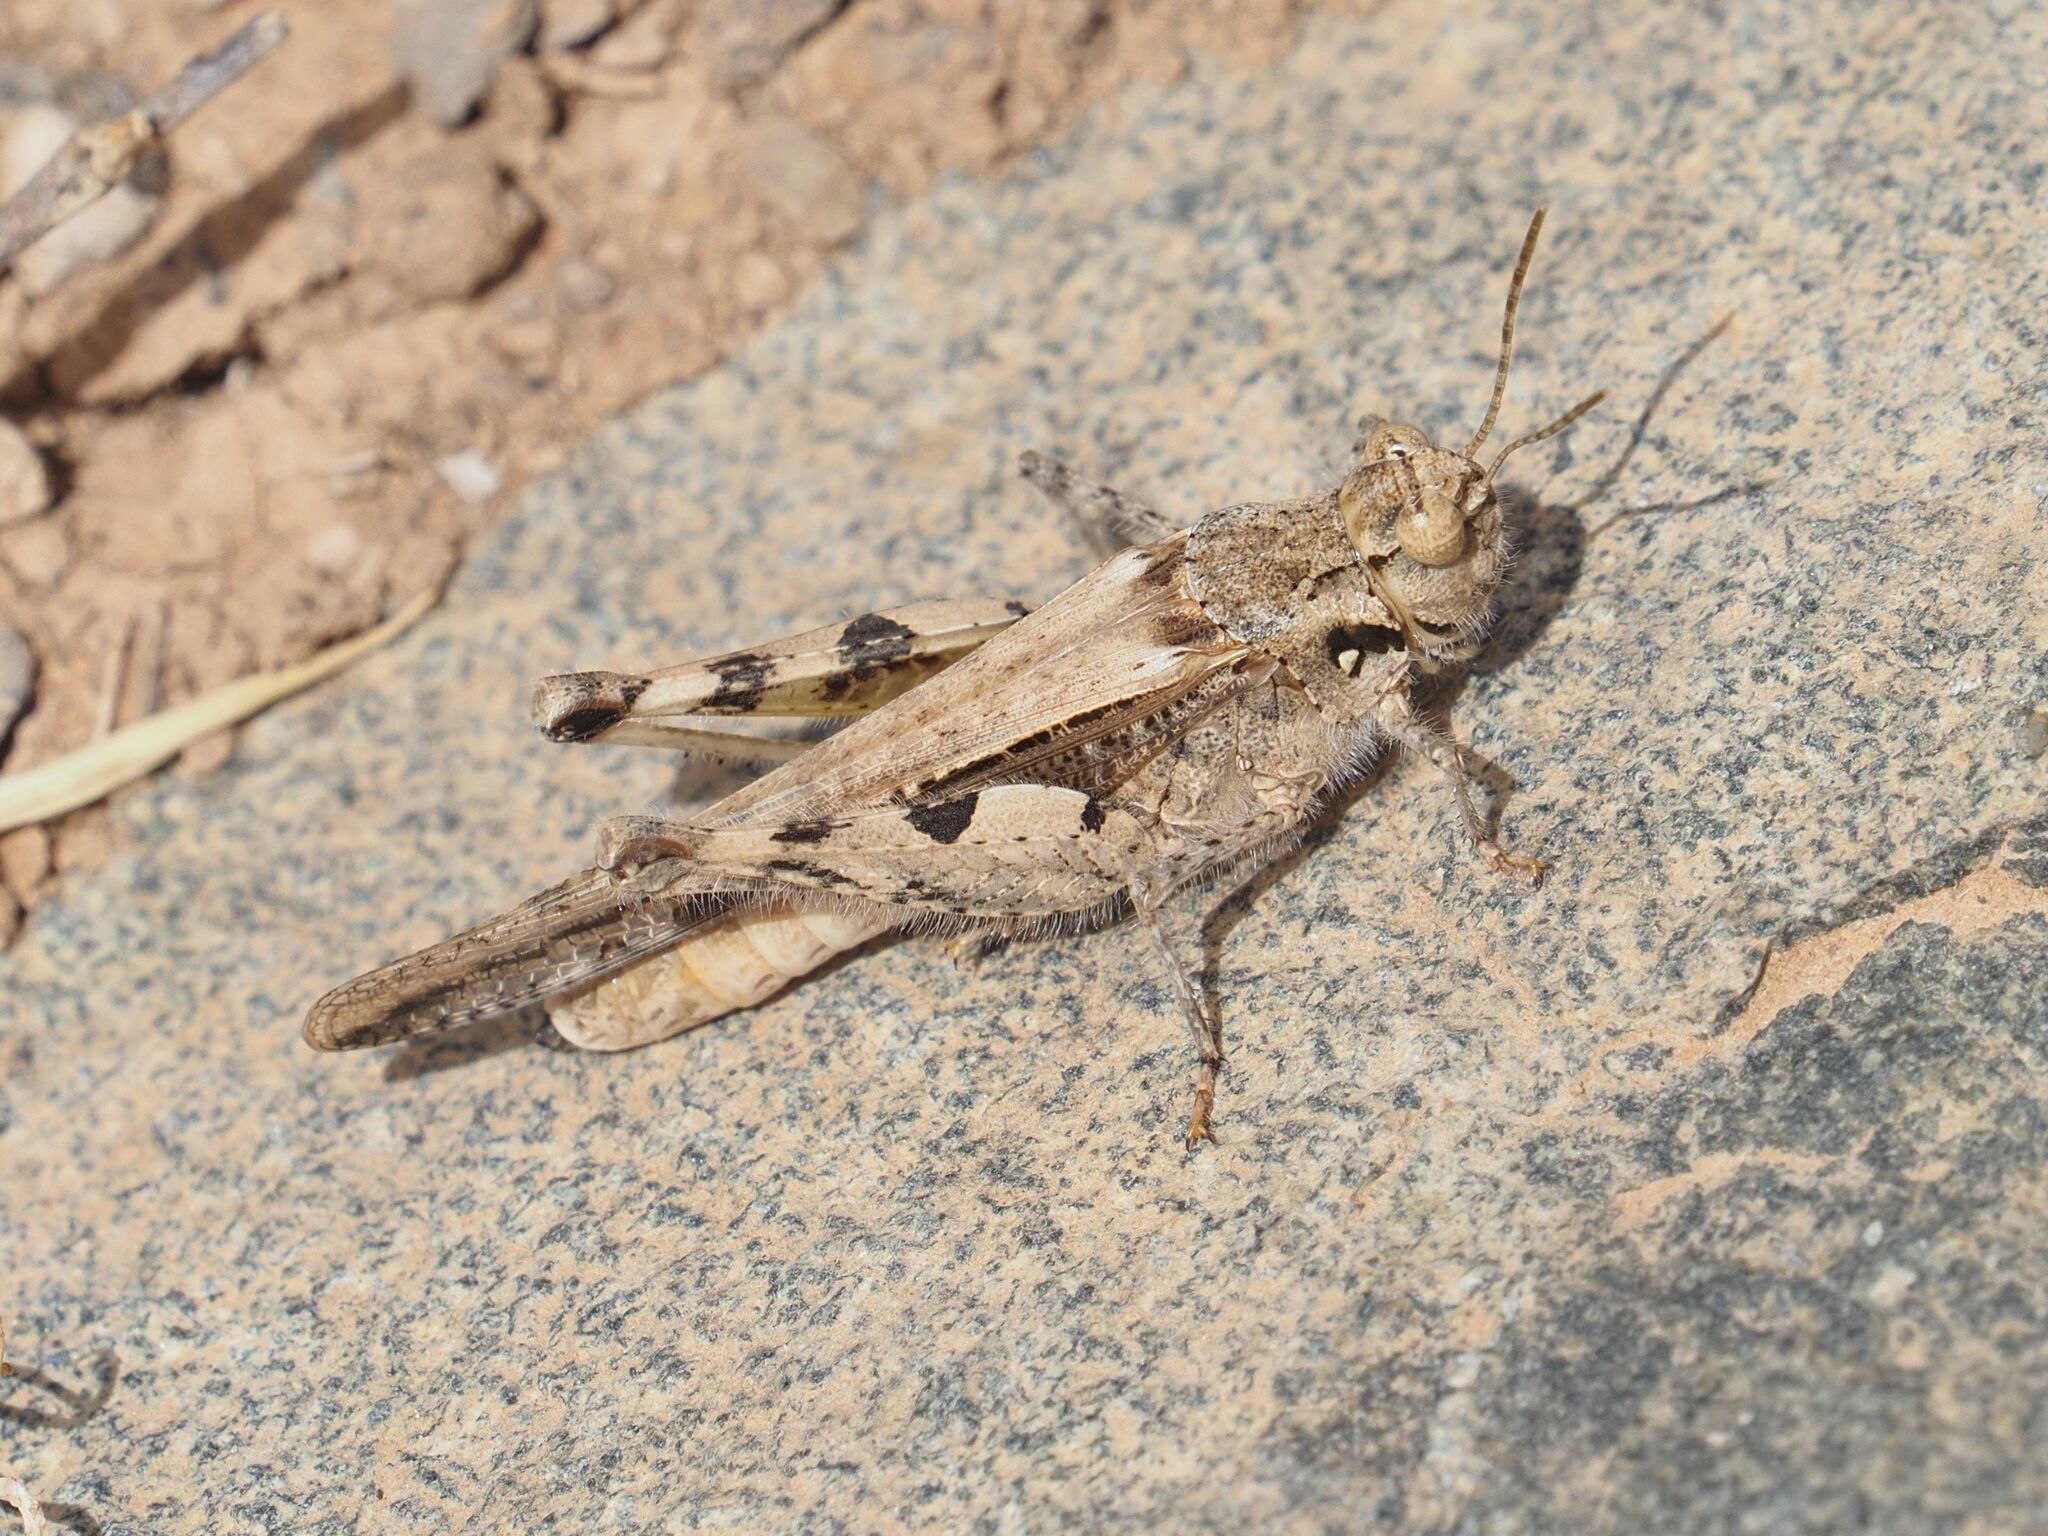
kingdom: Animalia
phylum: Arthropoda
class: Insecta
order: Orthoptera
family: Acrididae
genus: Acrotylus
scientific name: Acrotylus insubricus
